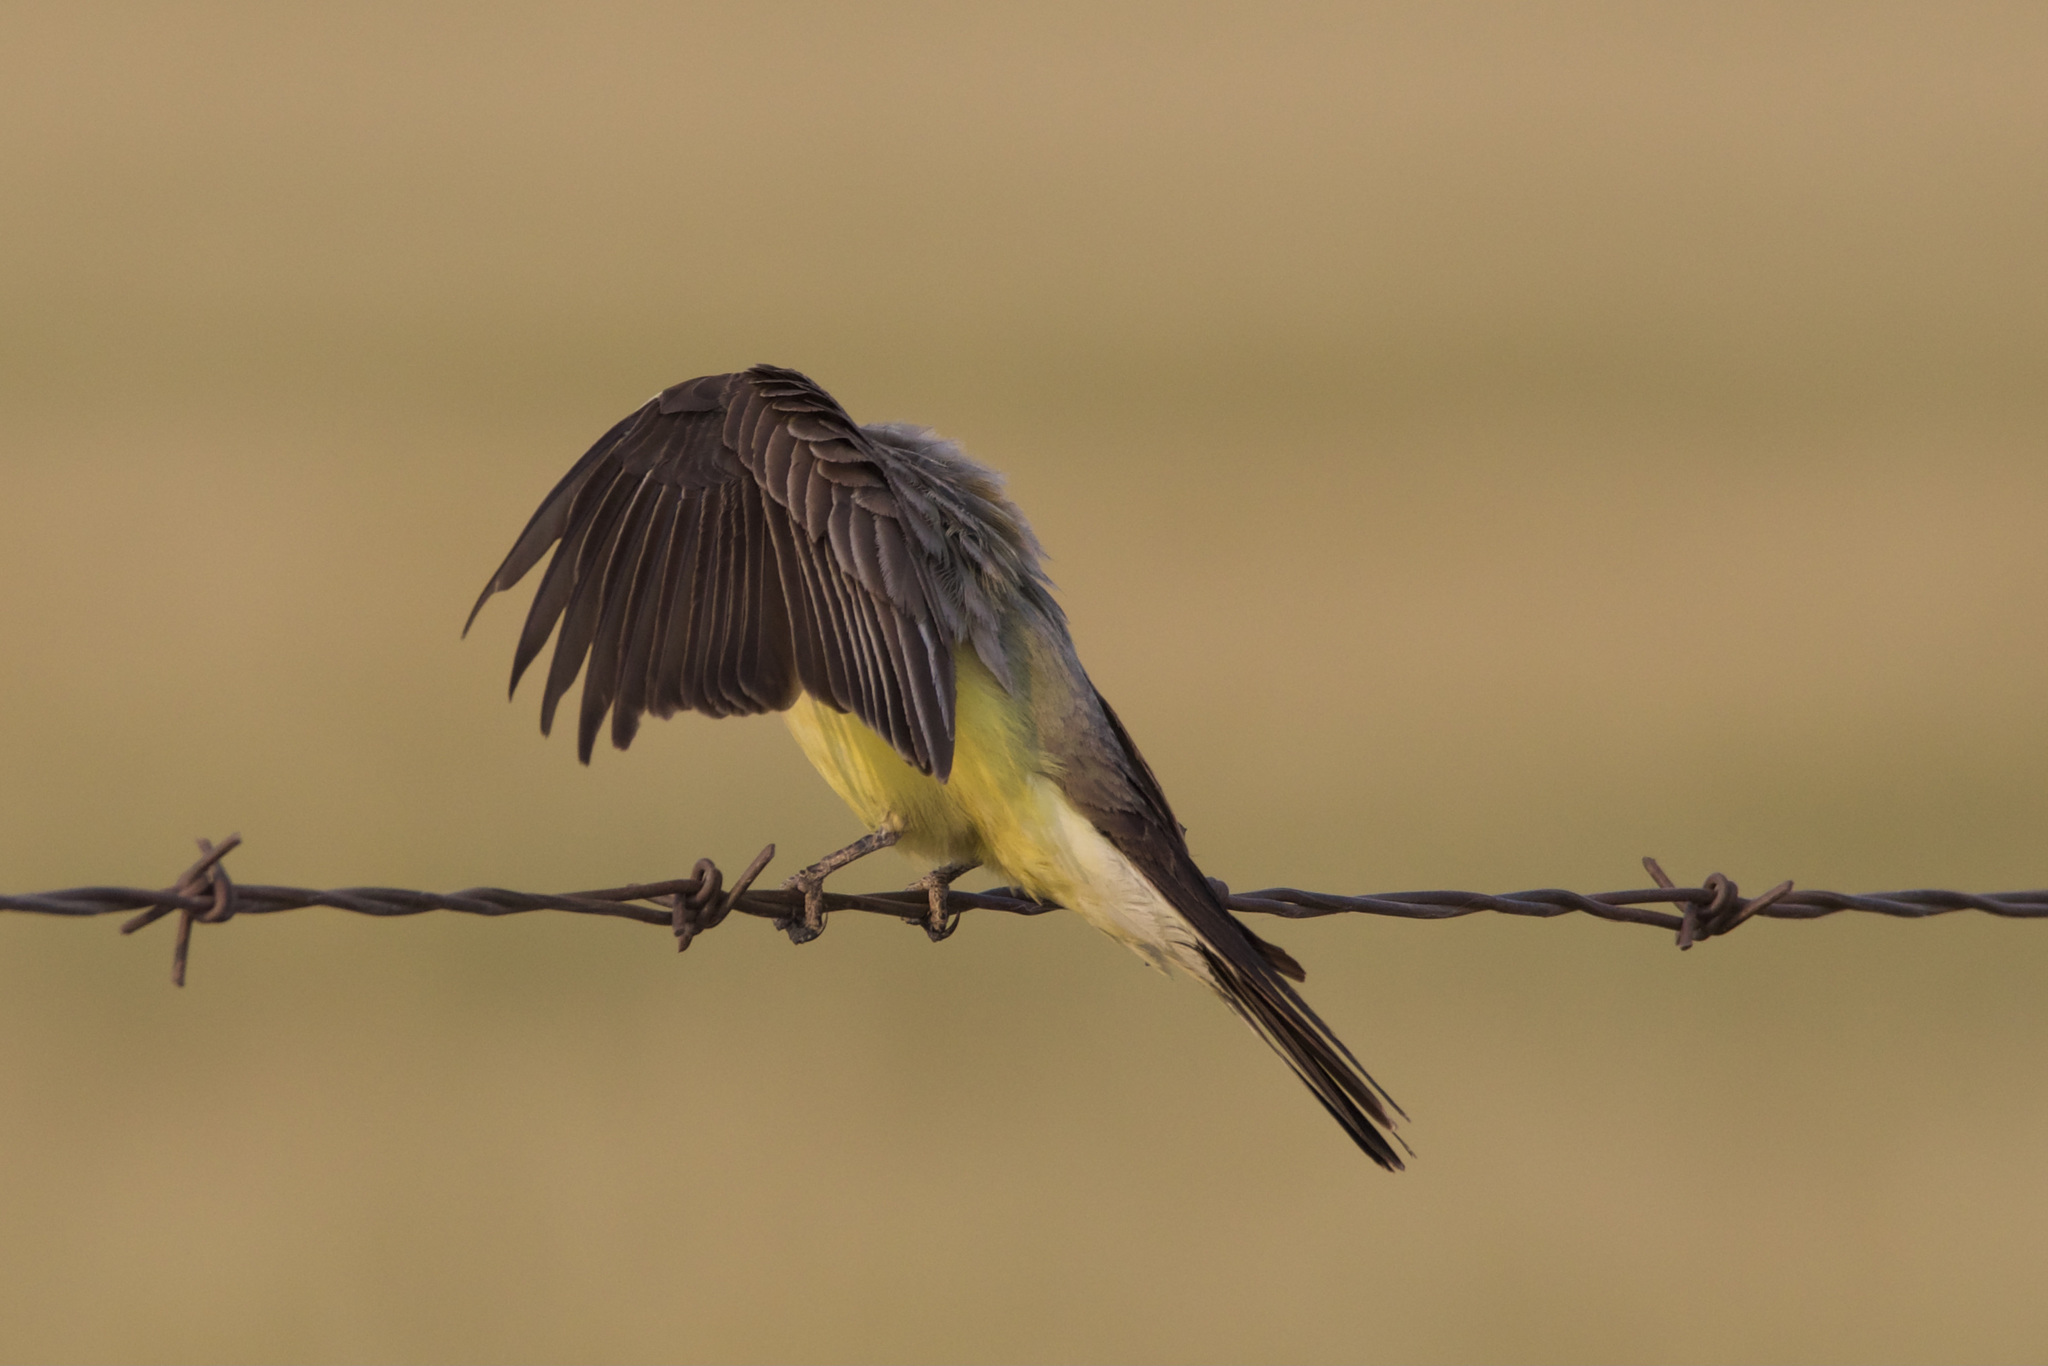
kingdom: Animalia
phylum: Chordata
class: Aves
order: Passeriformes
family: Tyrannidae
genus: Tyrannus
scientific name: Tyrannus verticalis
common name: Western kingbird
